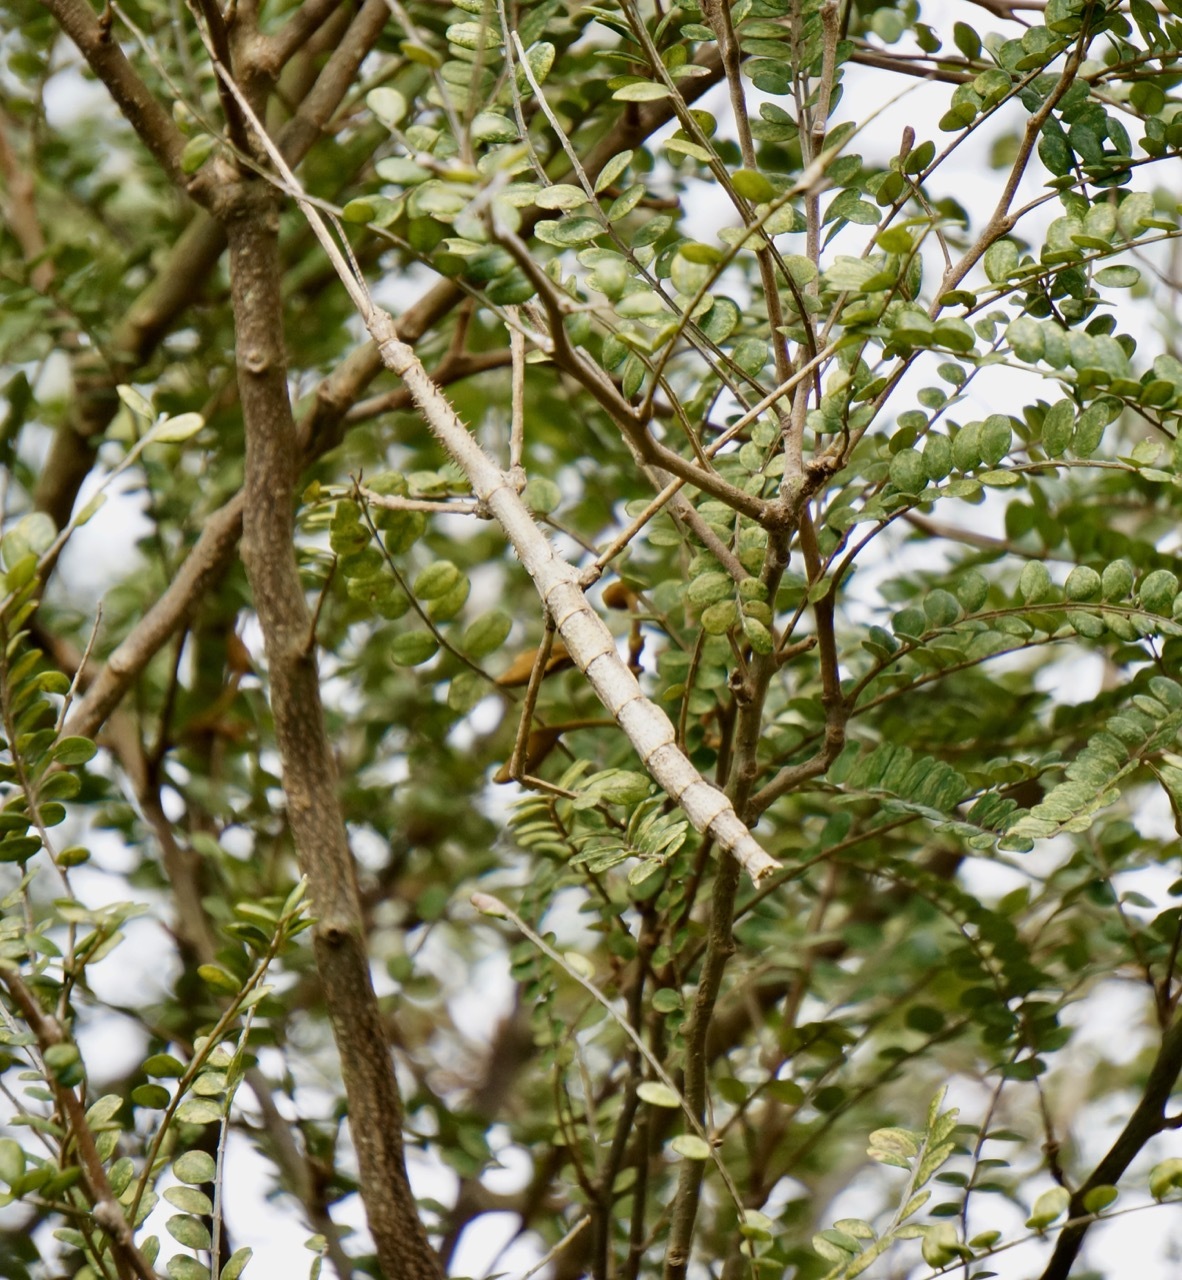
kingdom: Animalia
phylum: Arthropoda
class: Insecta
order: Phasmida
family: Phasmatidae
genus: Argosarchus
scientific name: Argosarchus horridus
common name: Bristly stick insect
